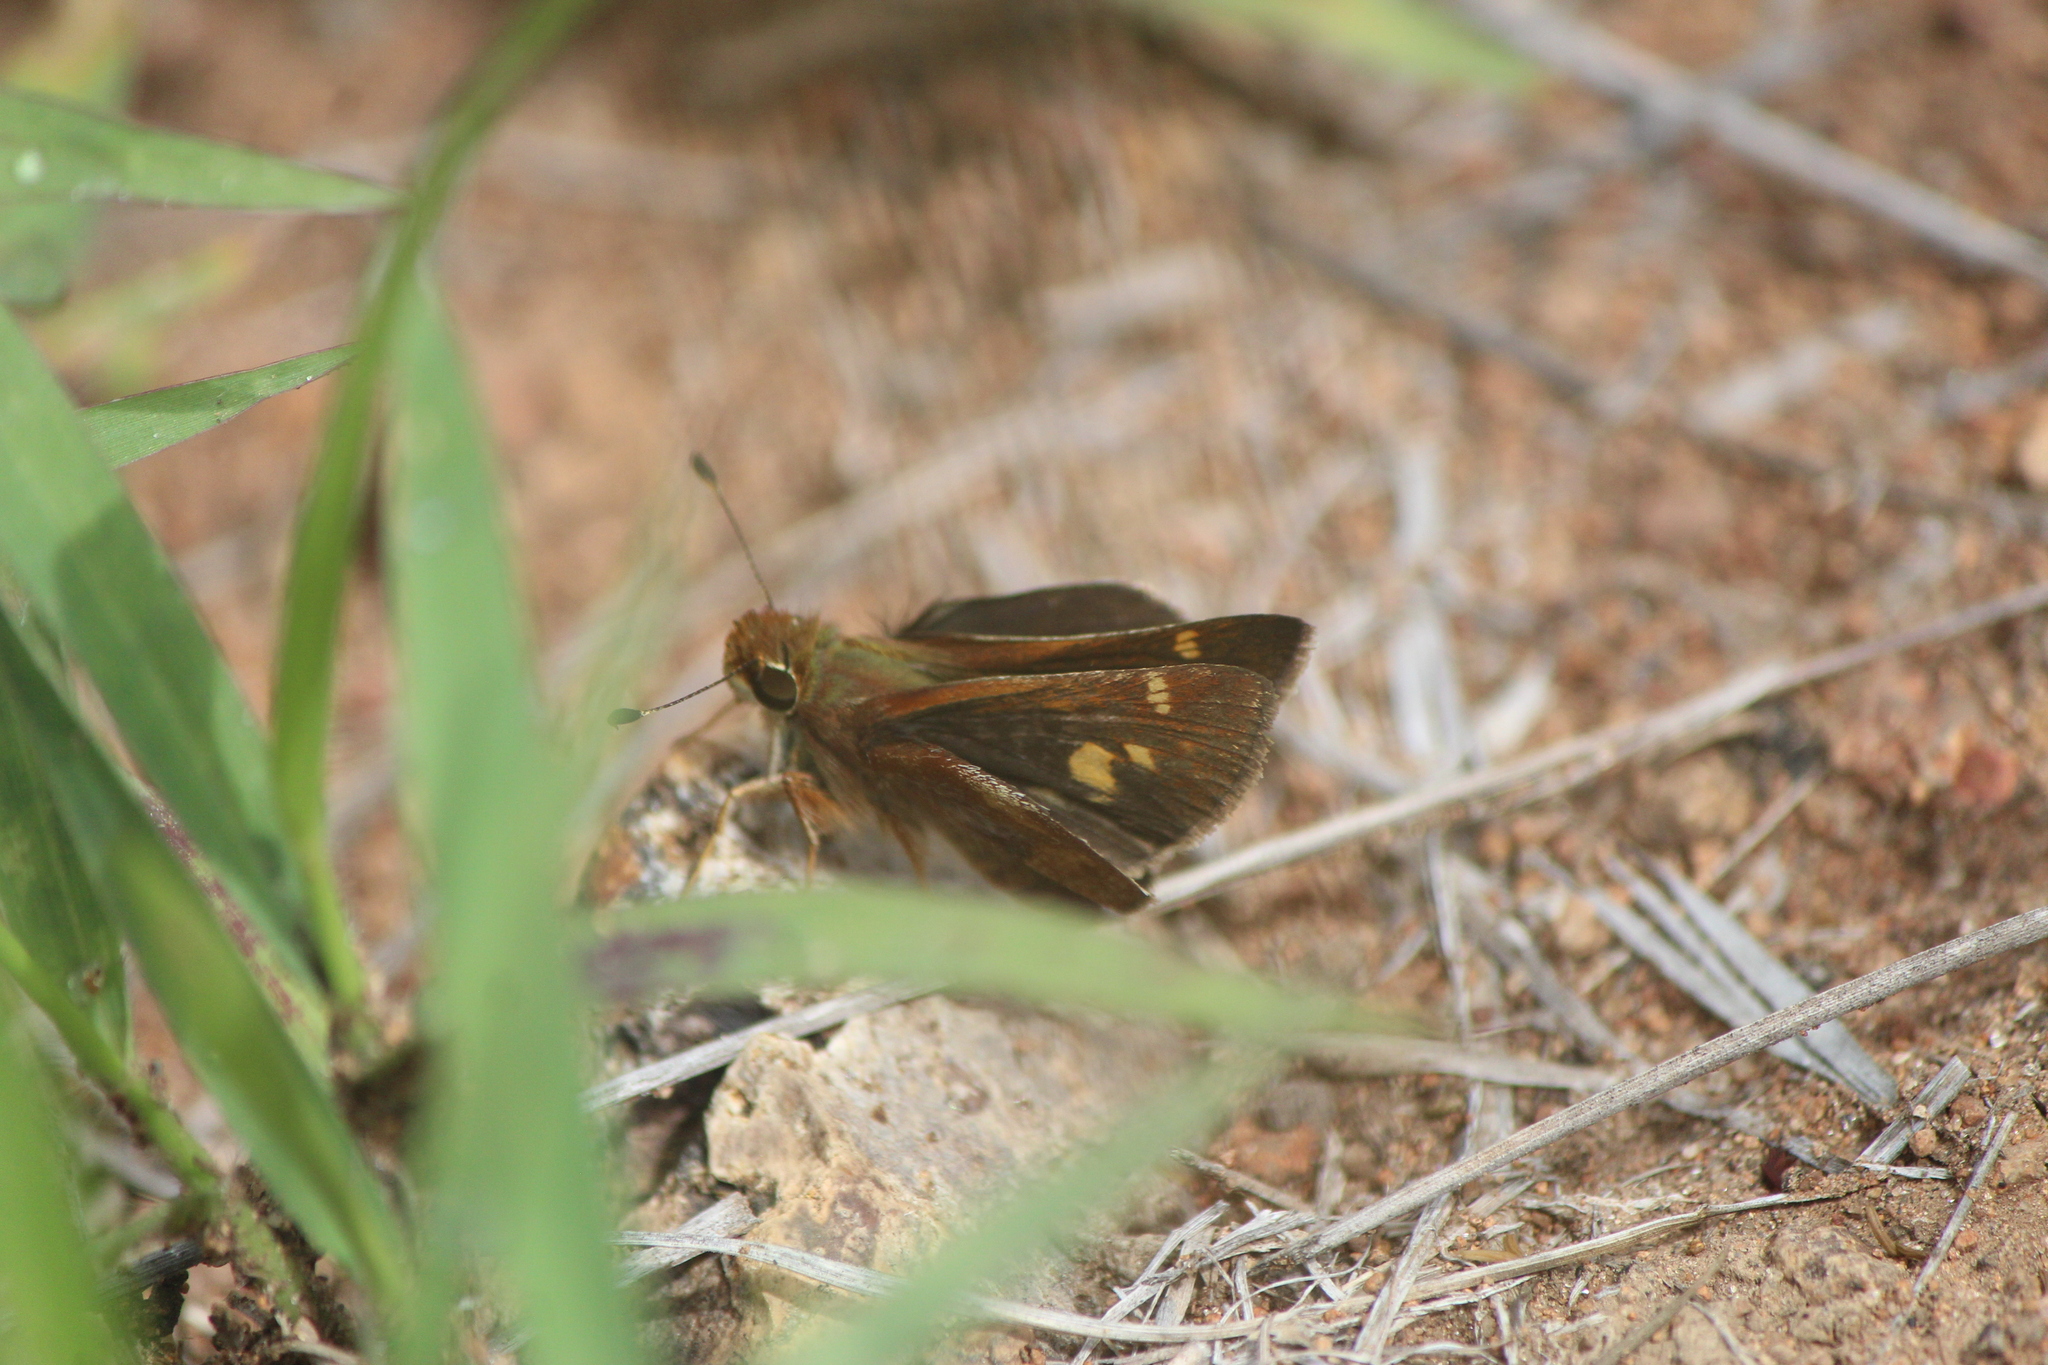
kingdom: Animalia
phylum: Arthropoda
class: Insecta
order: Lepidoptera
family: Hesperiidae
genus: Lon
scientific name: Lon
